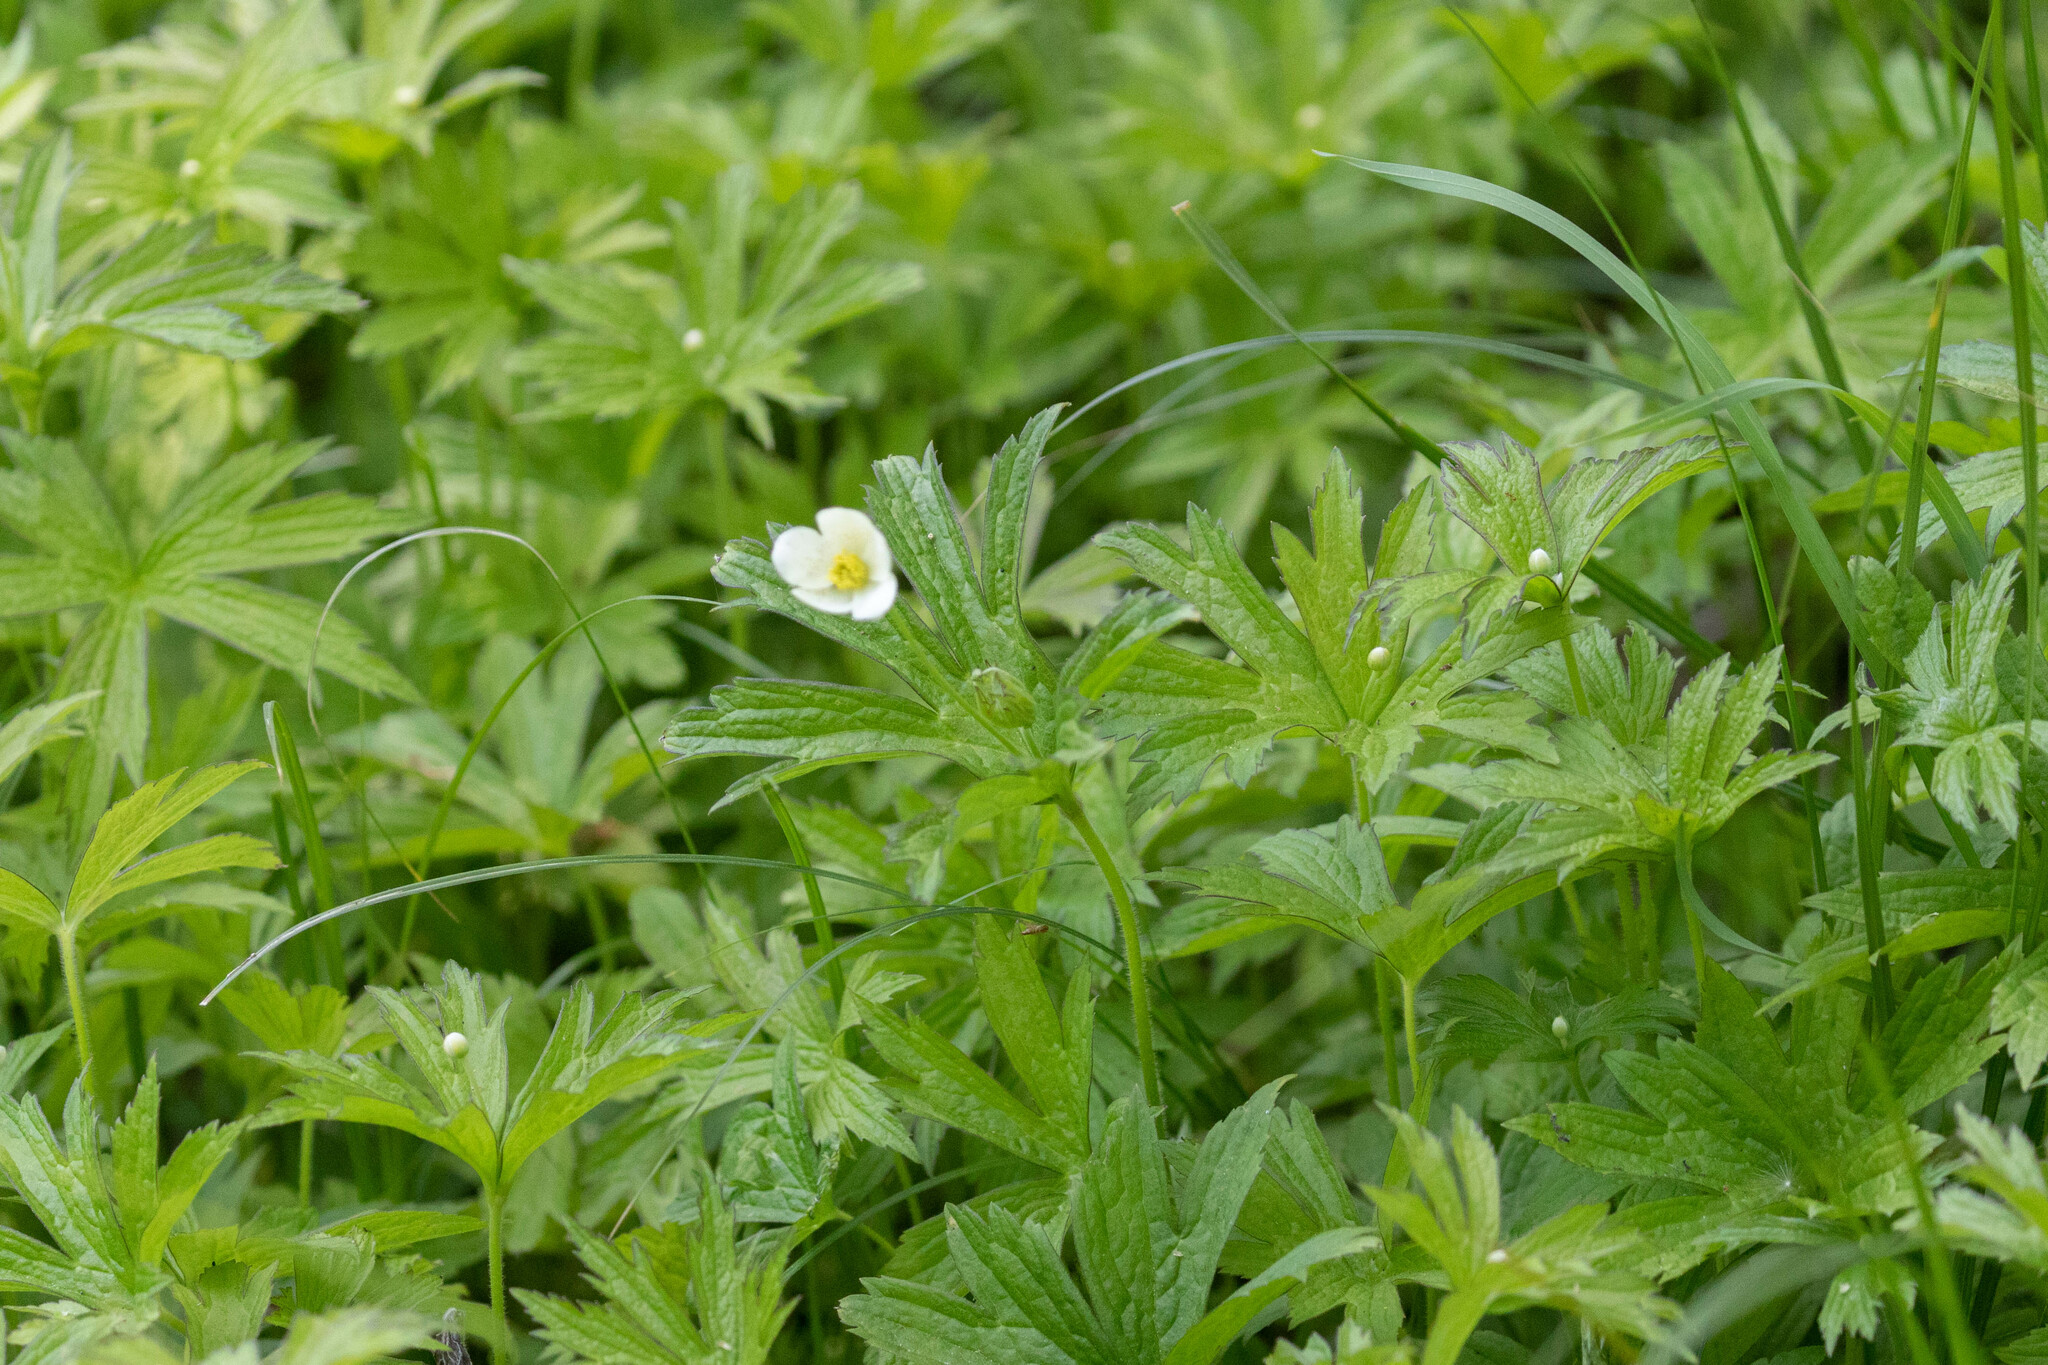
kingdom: Plantae
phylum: Tracheophyta
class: Magnoliopsida
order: Ranunculales
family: Ranunculaceae
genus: Anemonastrum
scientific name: Anemonastrum canadense
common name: Canada anemone
